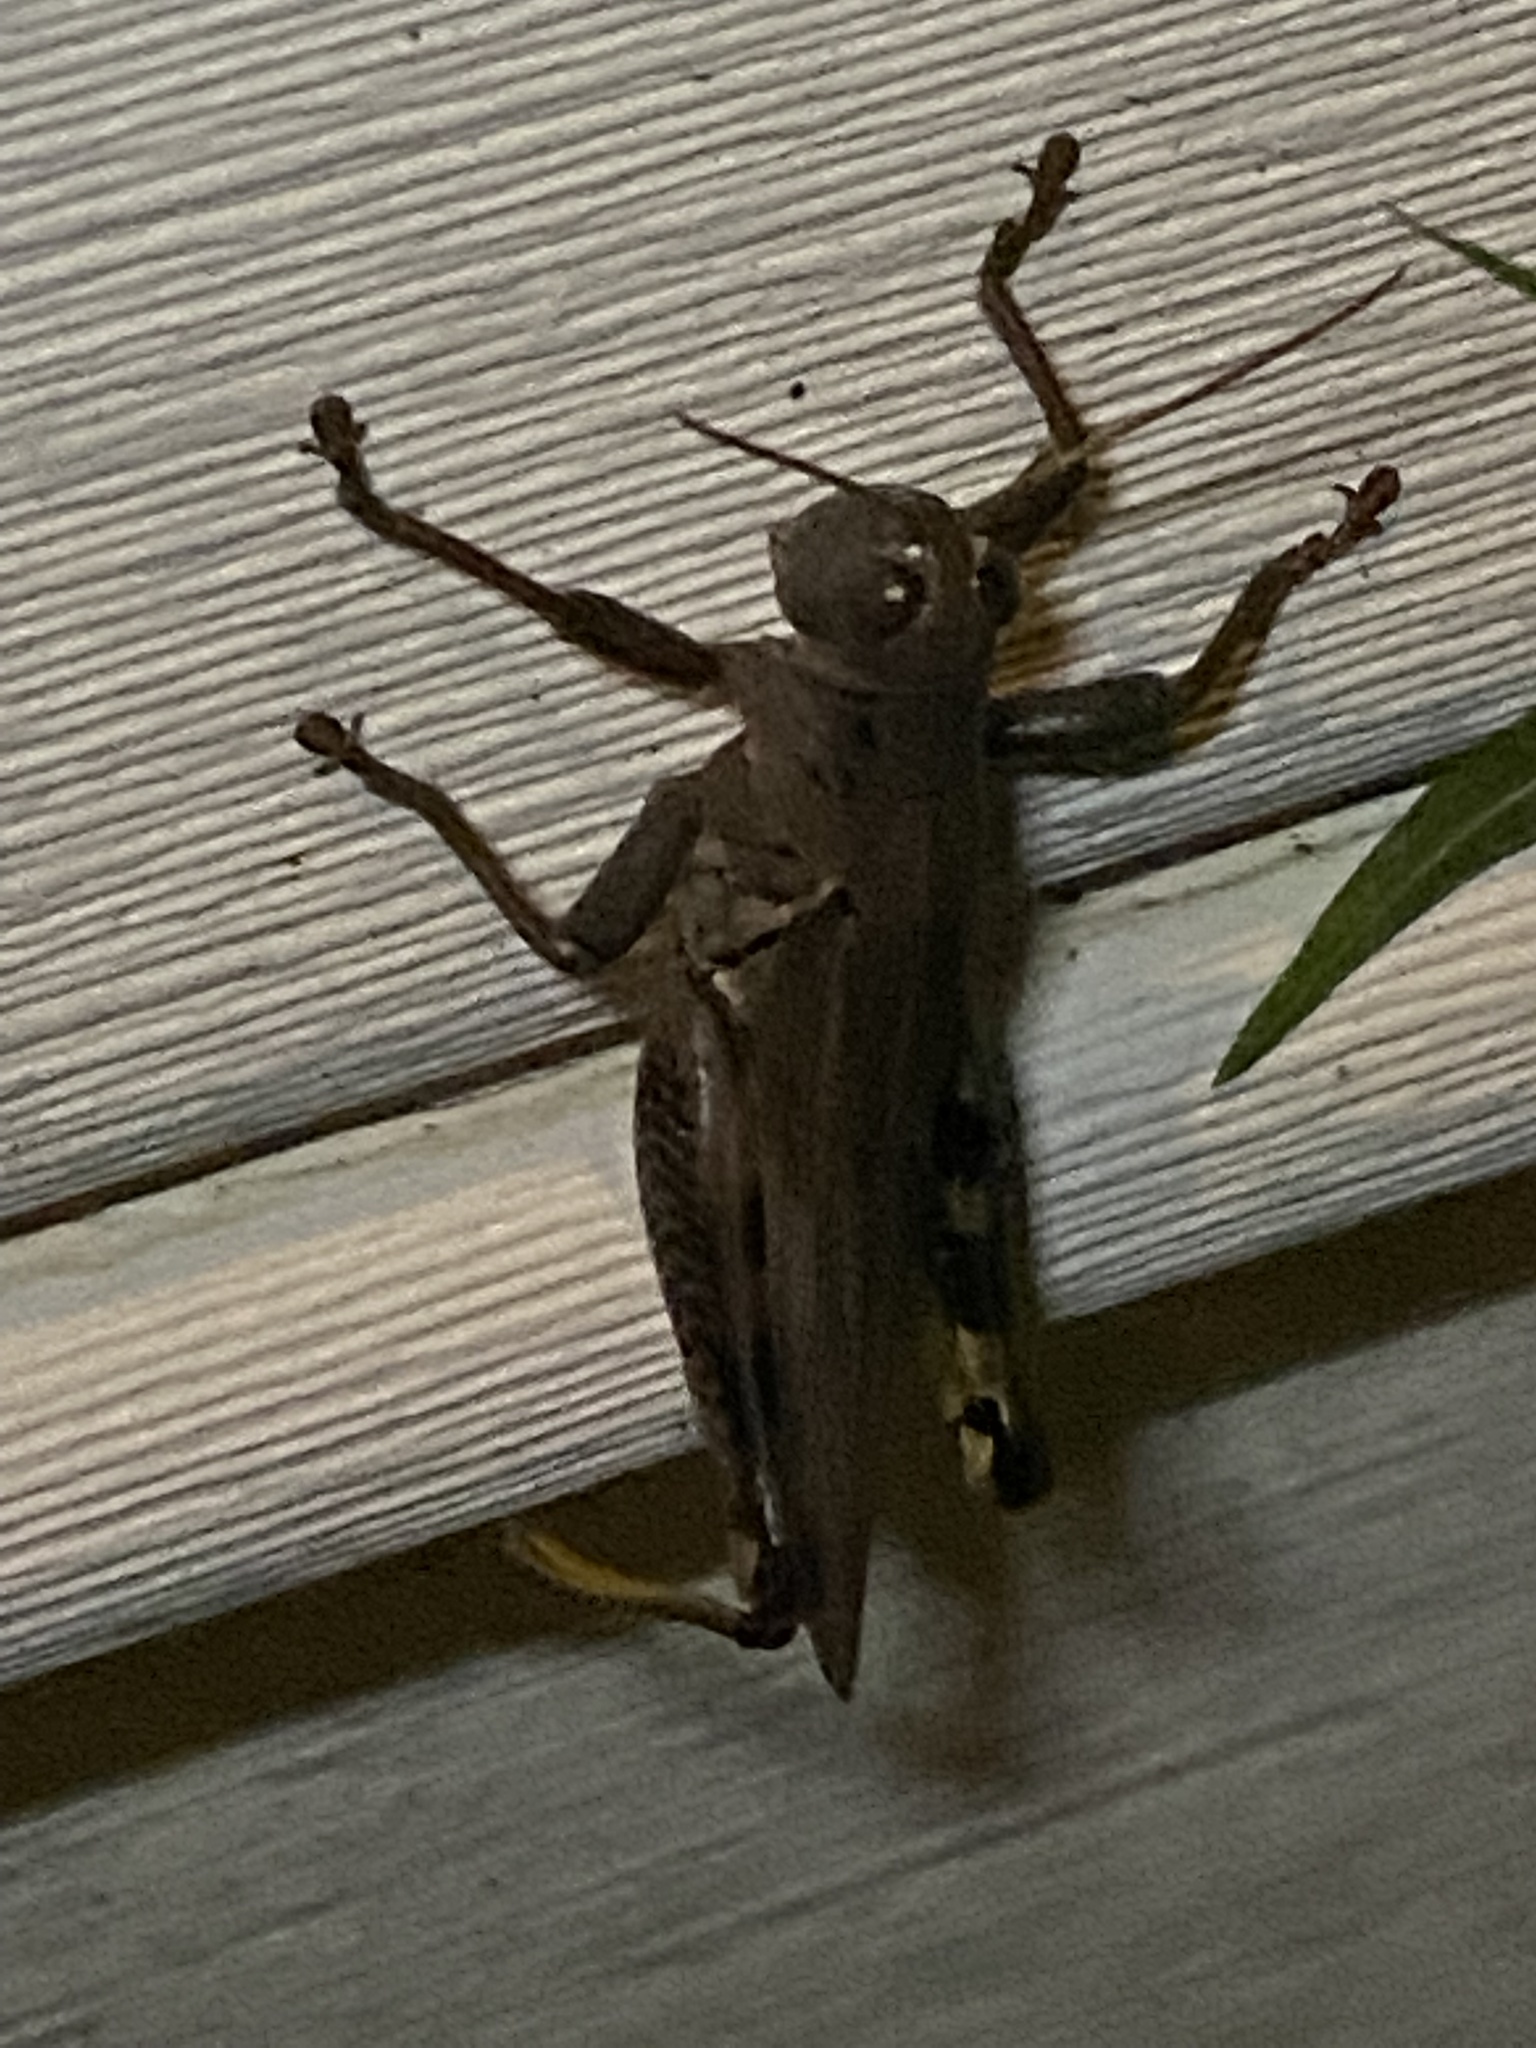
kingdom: Animalia
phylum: Arthropoda
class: Insecta
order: Orthoptera
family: Acrididae
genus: Melanoplus
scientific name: Melanoplus differentialis
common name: Differential grasshopper
